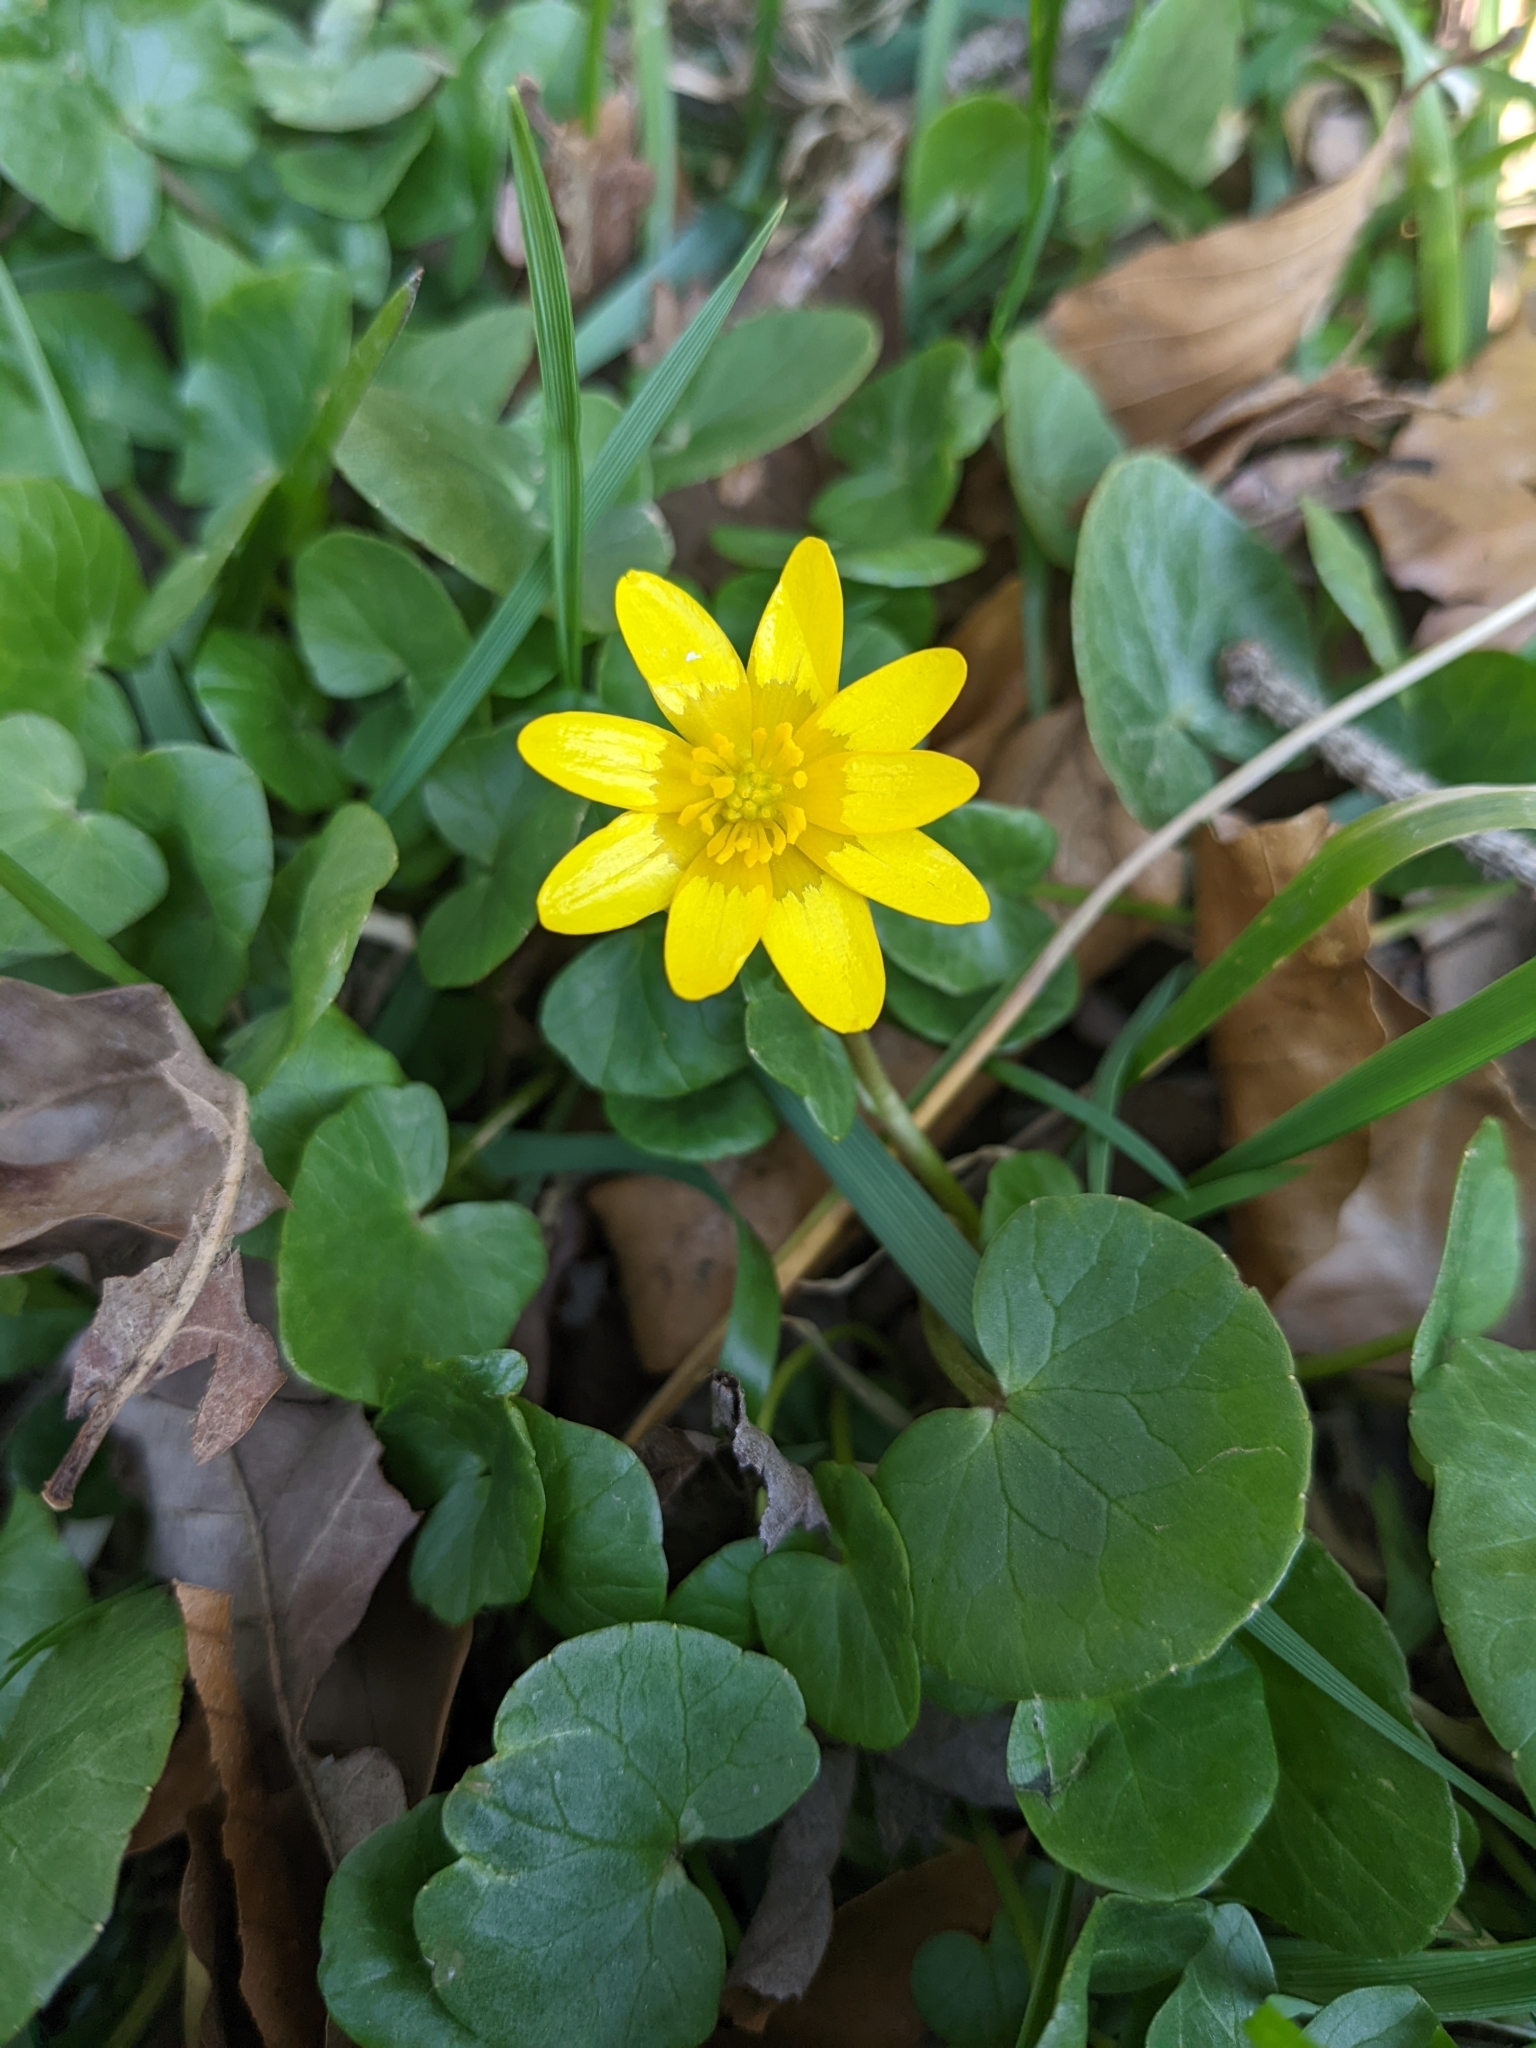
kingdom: Plantae
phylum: Tracheophyta
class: Magnoliopsida
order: Ranunculales
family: Ranunculaceae
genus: Ficaria
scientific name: Ficaria verna
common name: Lesser celandine
